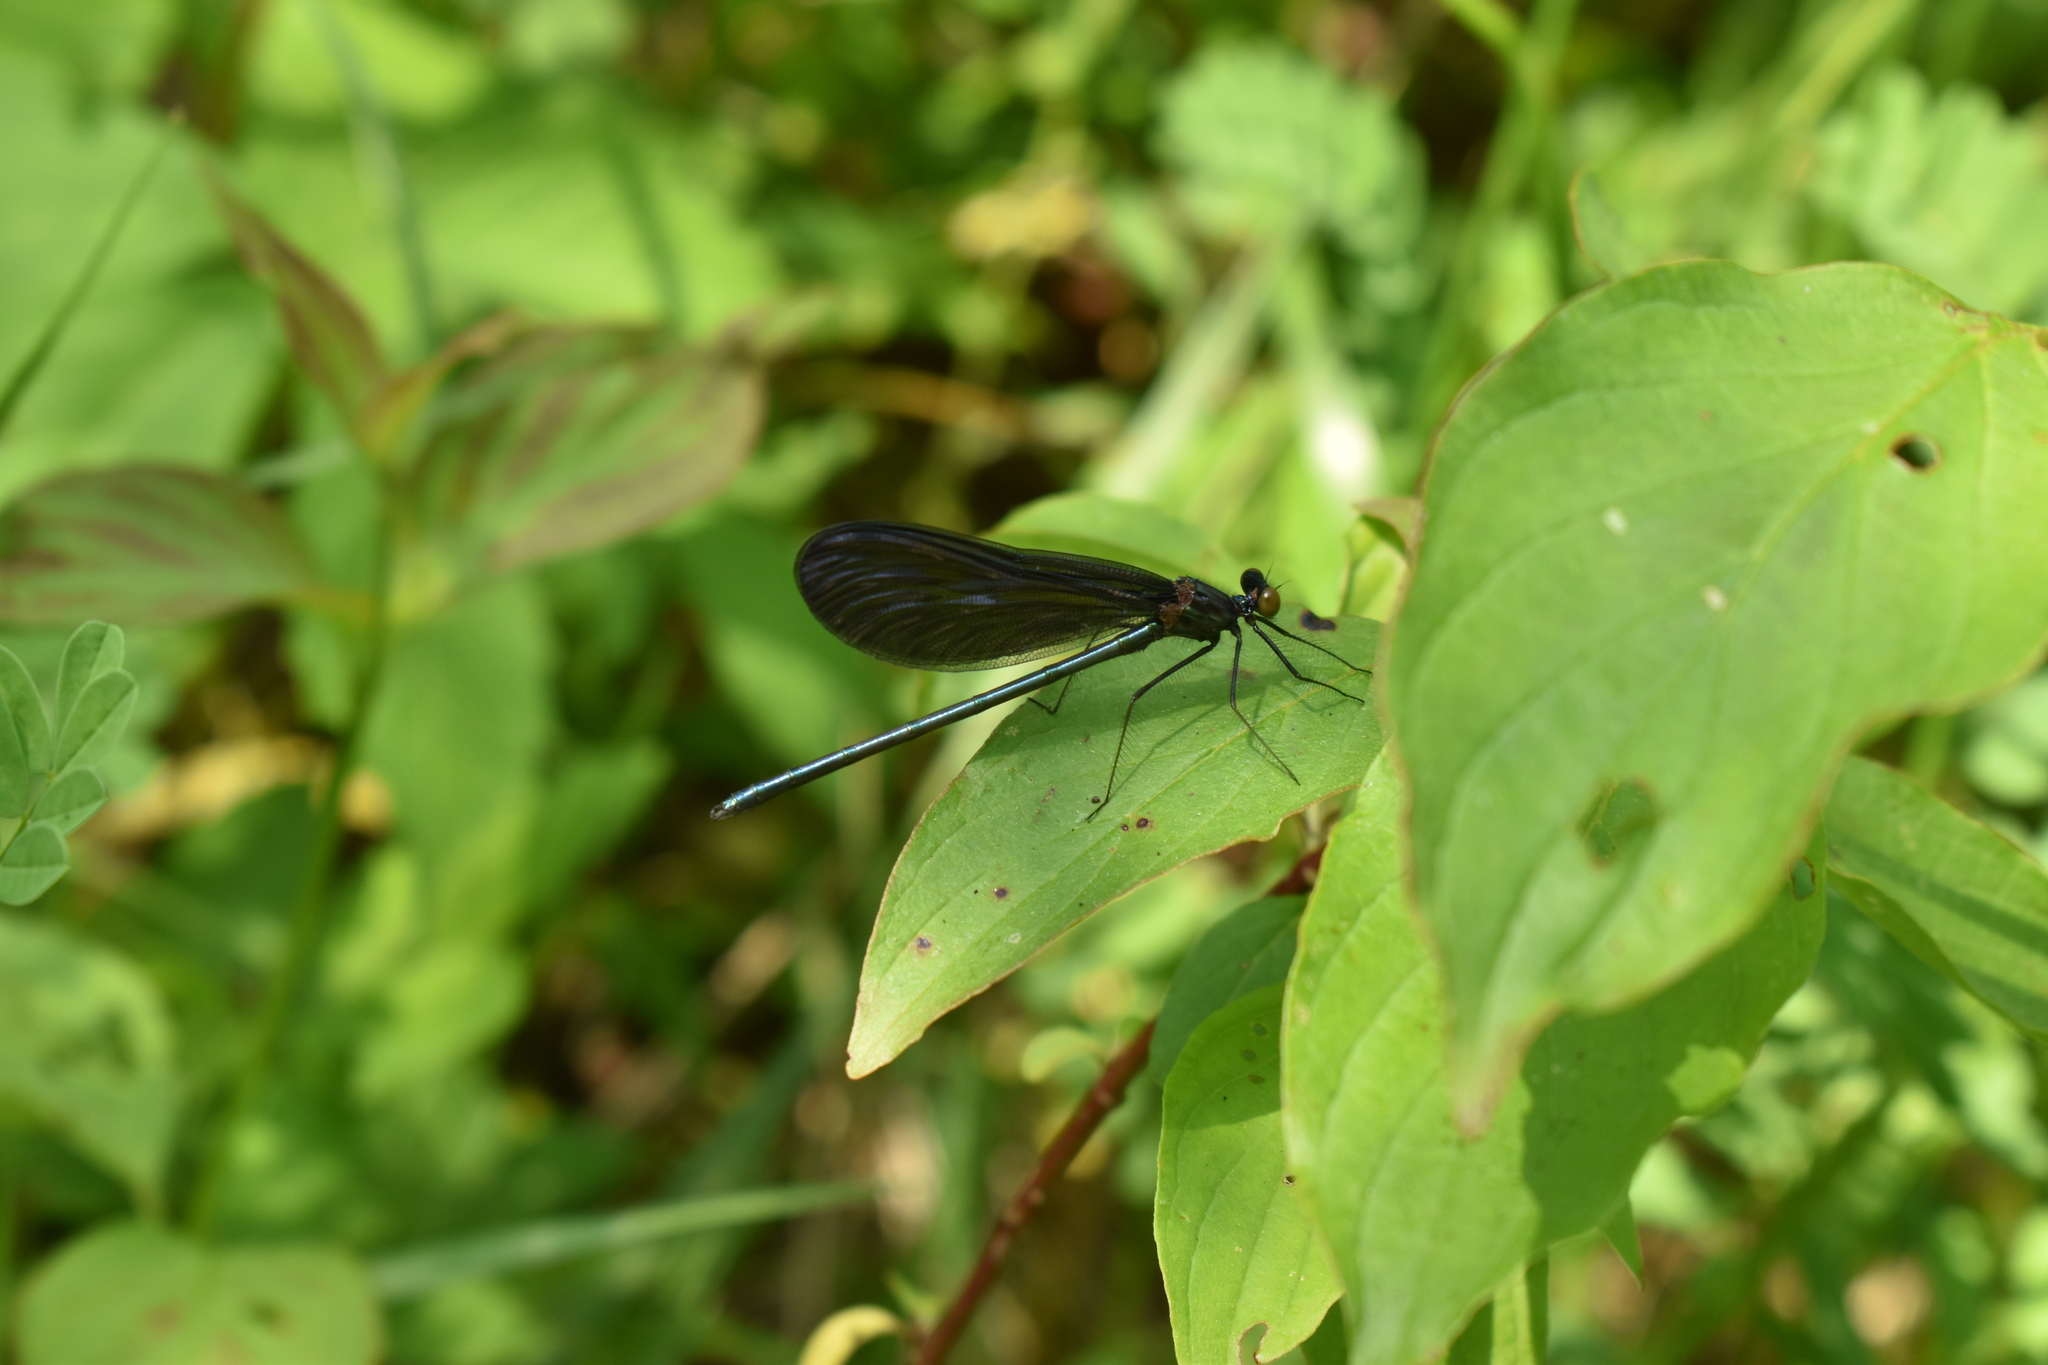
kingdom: Animalia
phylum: Arthropoda
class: Insecta
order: Odonata
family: Calopterygidae
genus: Calopteryx
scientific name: Calopteryx maculata
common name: Ebony jewelwing
